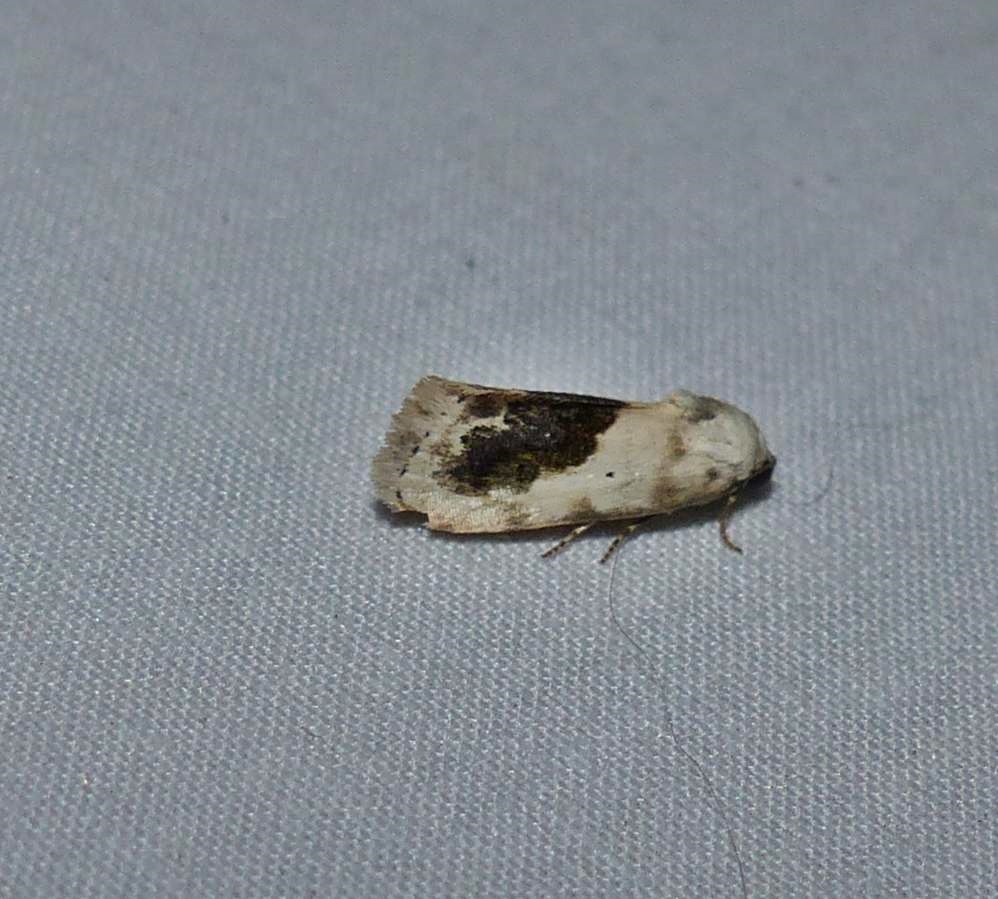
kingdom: Animalia
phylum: Arthropoda
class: Insecta
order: Lepidoptera
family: Noctuidae
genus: Acontia
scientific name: Acontia erastrioides
